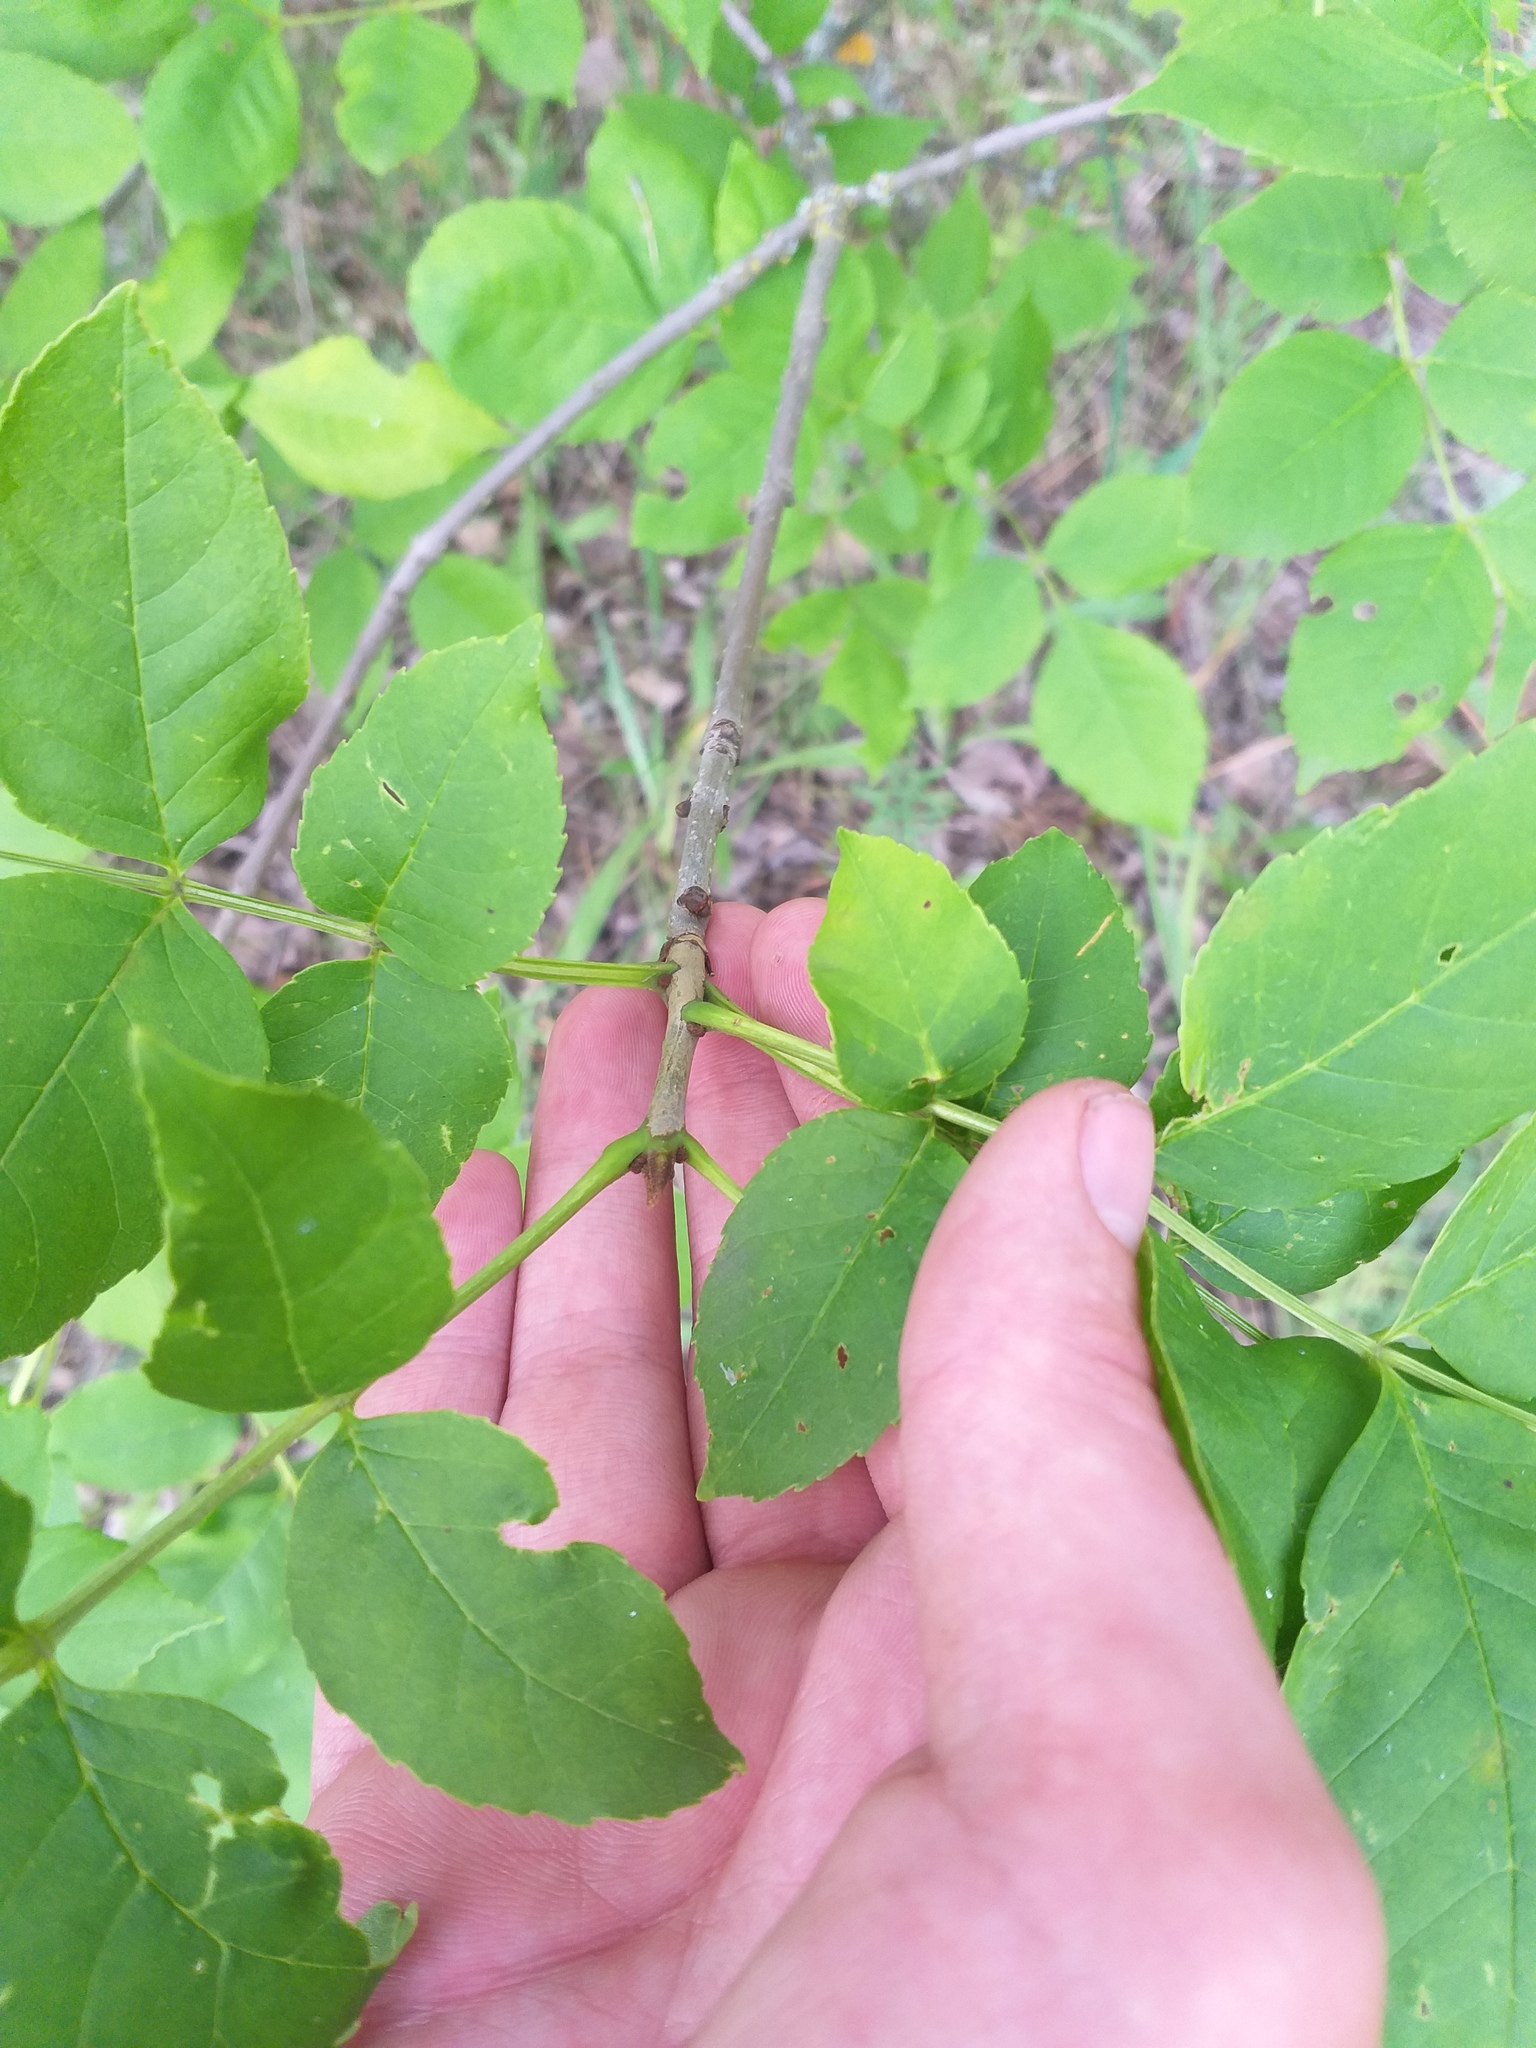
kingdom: Plantae
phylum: Tracheophyta
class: Magnoliopsida
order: Lamiales
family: Oleaceae
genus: Fraxinus
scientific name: Fraxinus pennsylvanica
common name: Green ash
